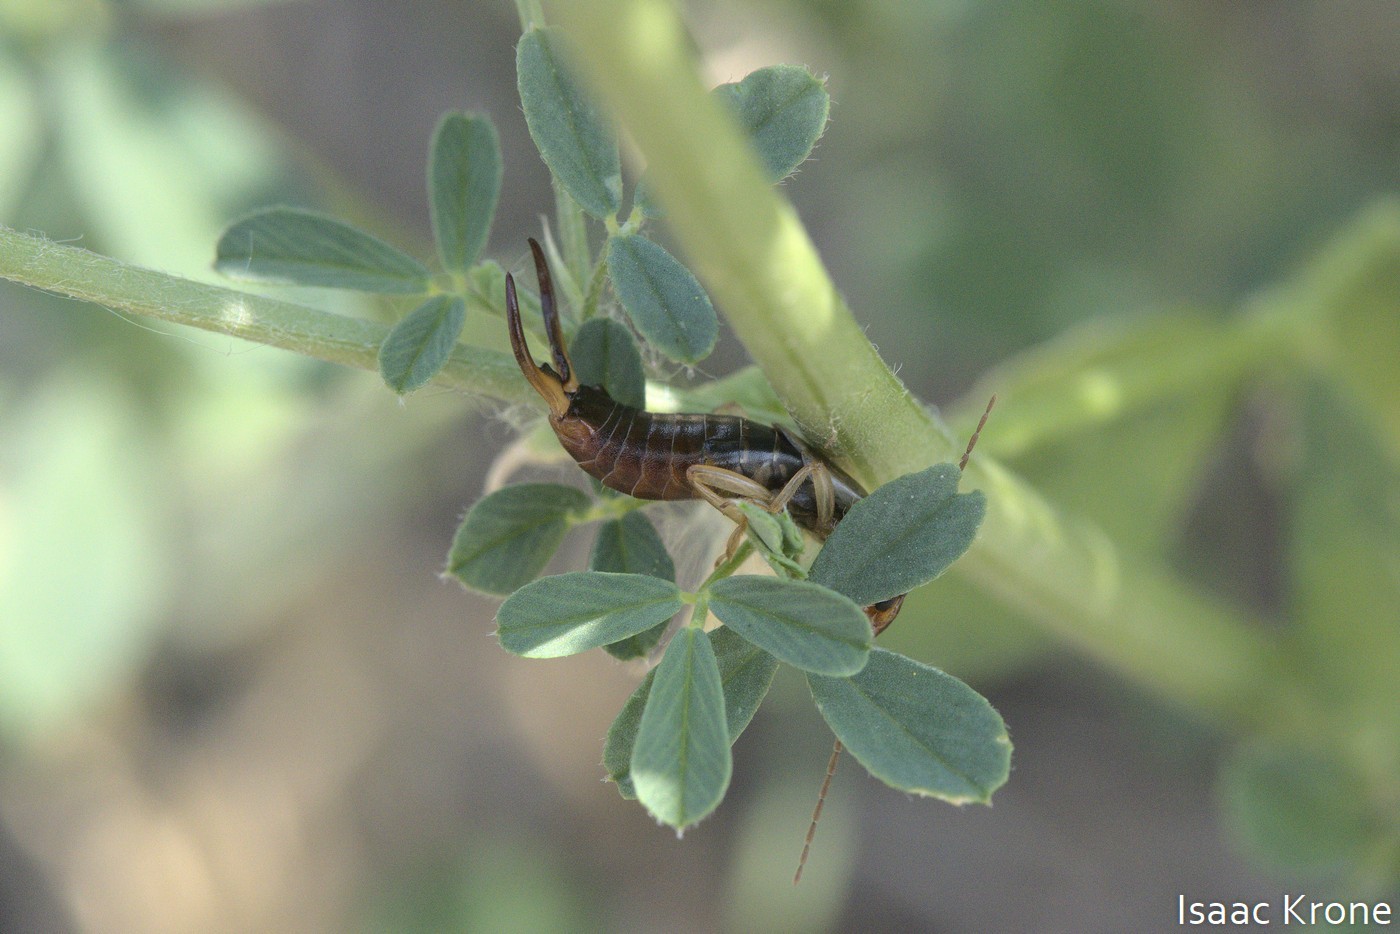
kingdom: Animalia
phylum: Arthropoda
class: Insecta
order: Dermaptera
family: Forficulidae
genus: Forficula
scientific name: Forficula
